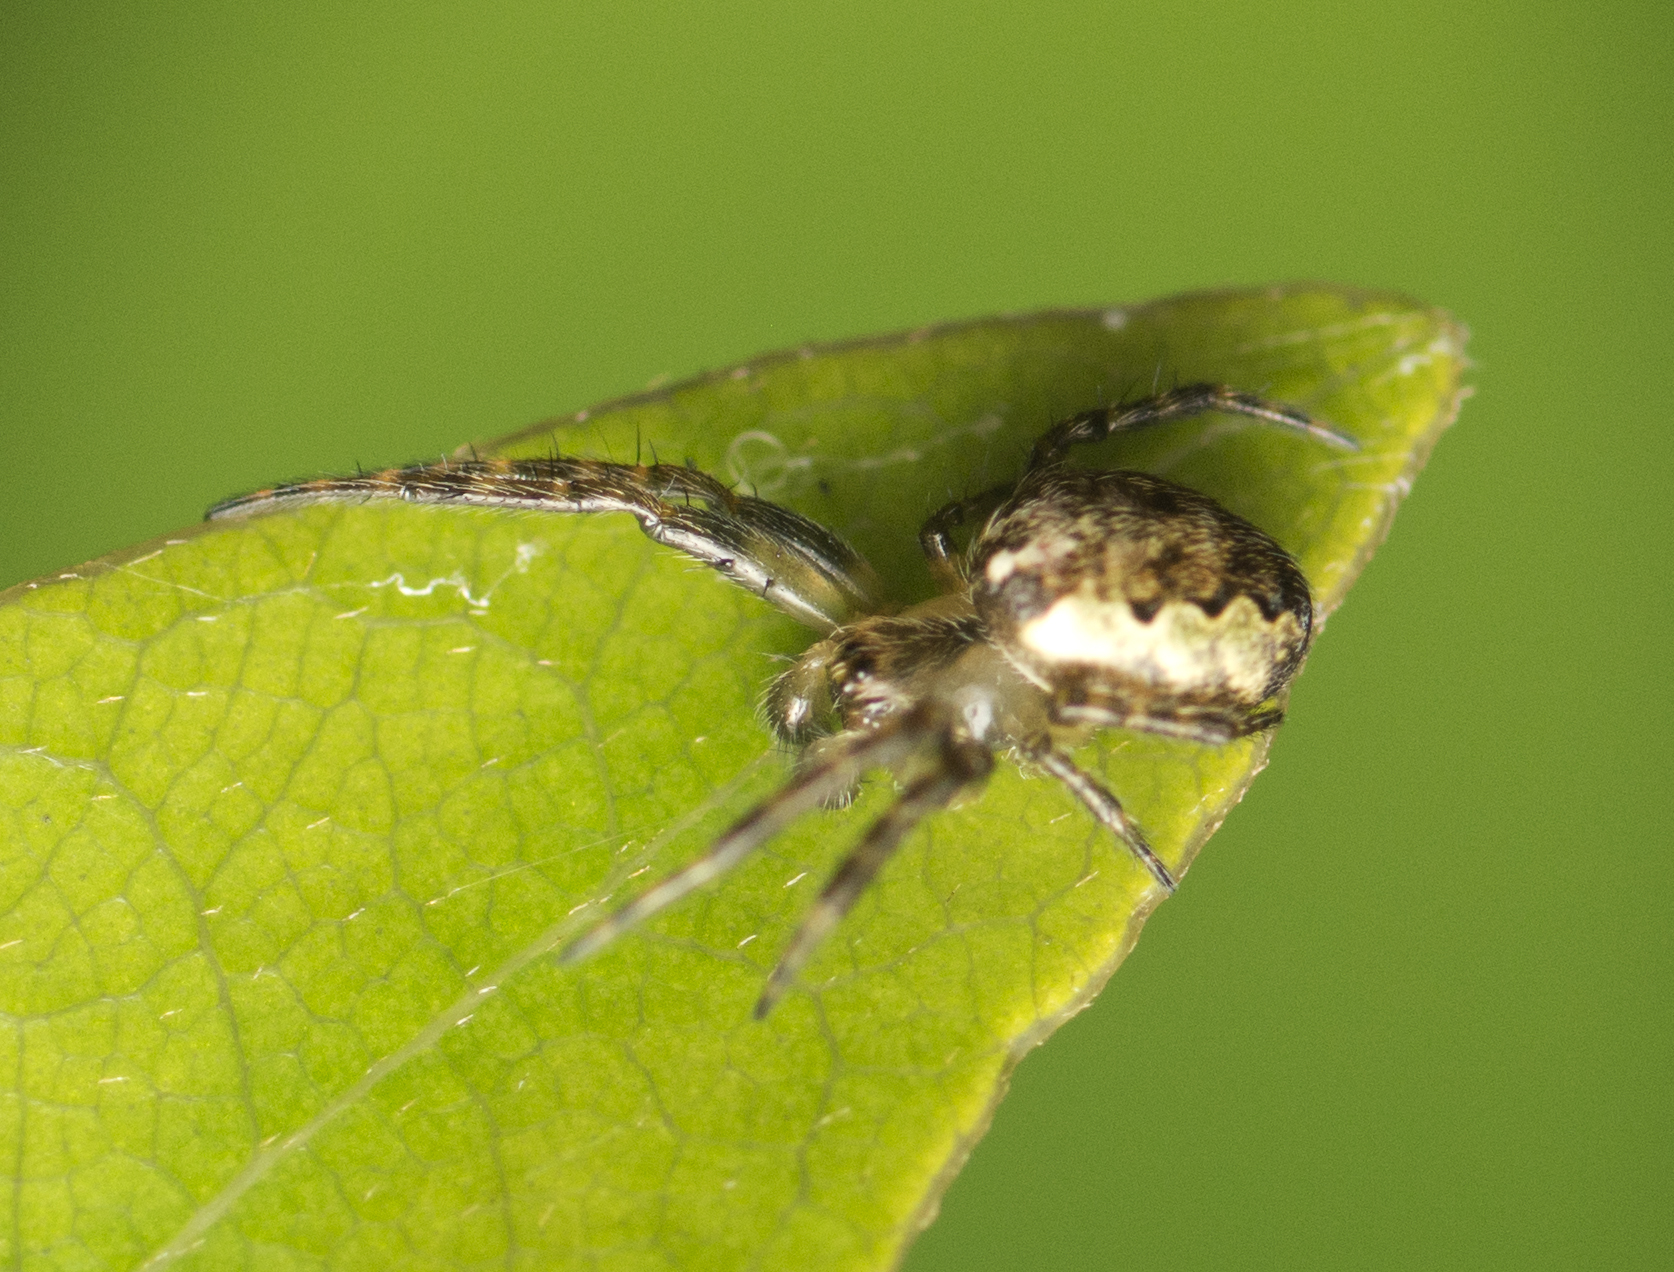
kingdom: Animalia
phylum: Arthropoda
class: Arachnida
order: Araneae
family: Araneidae
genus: Plebs
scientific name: Plebs eburnus
